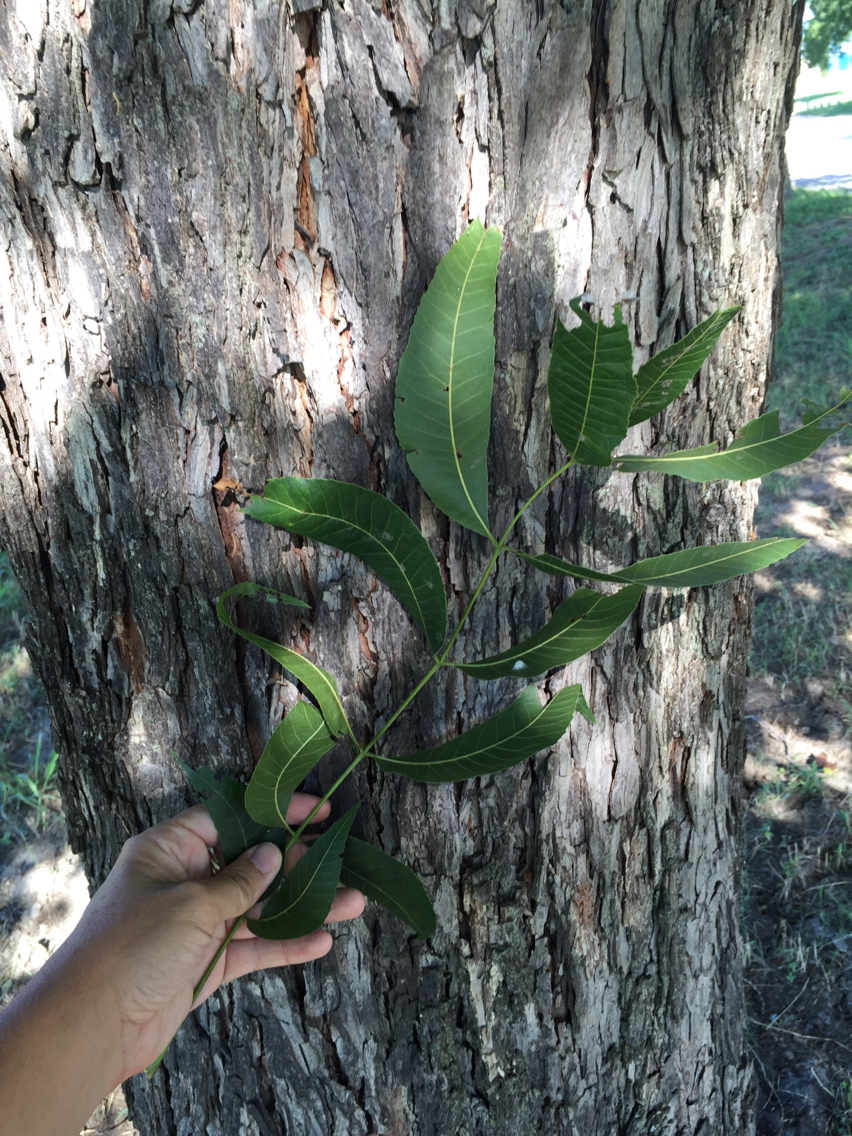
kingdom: Plantae
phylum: Tracheophyta
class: Magnoliopsida
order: Fagales
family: Juglandaceae
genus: Carya
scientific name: Carya illinoinensis
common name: Pecan
